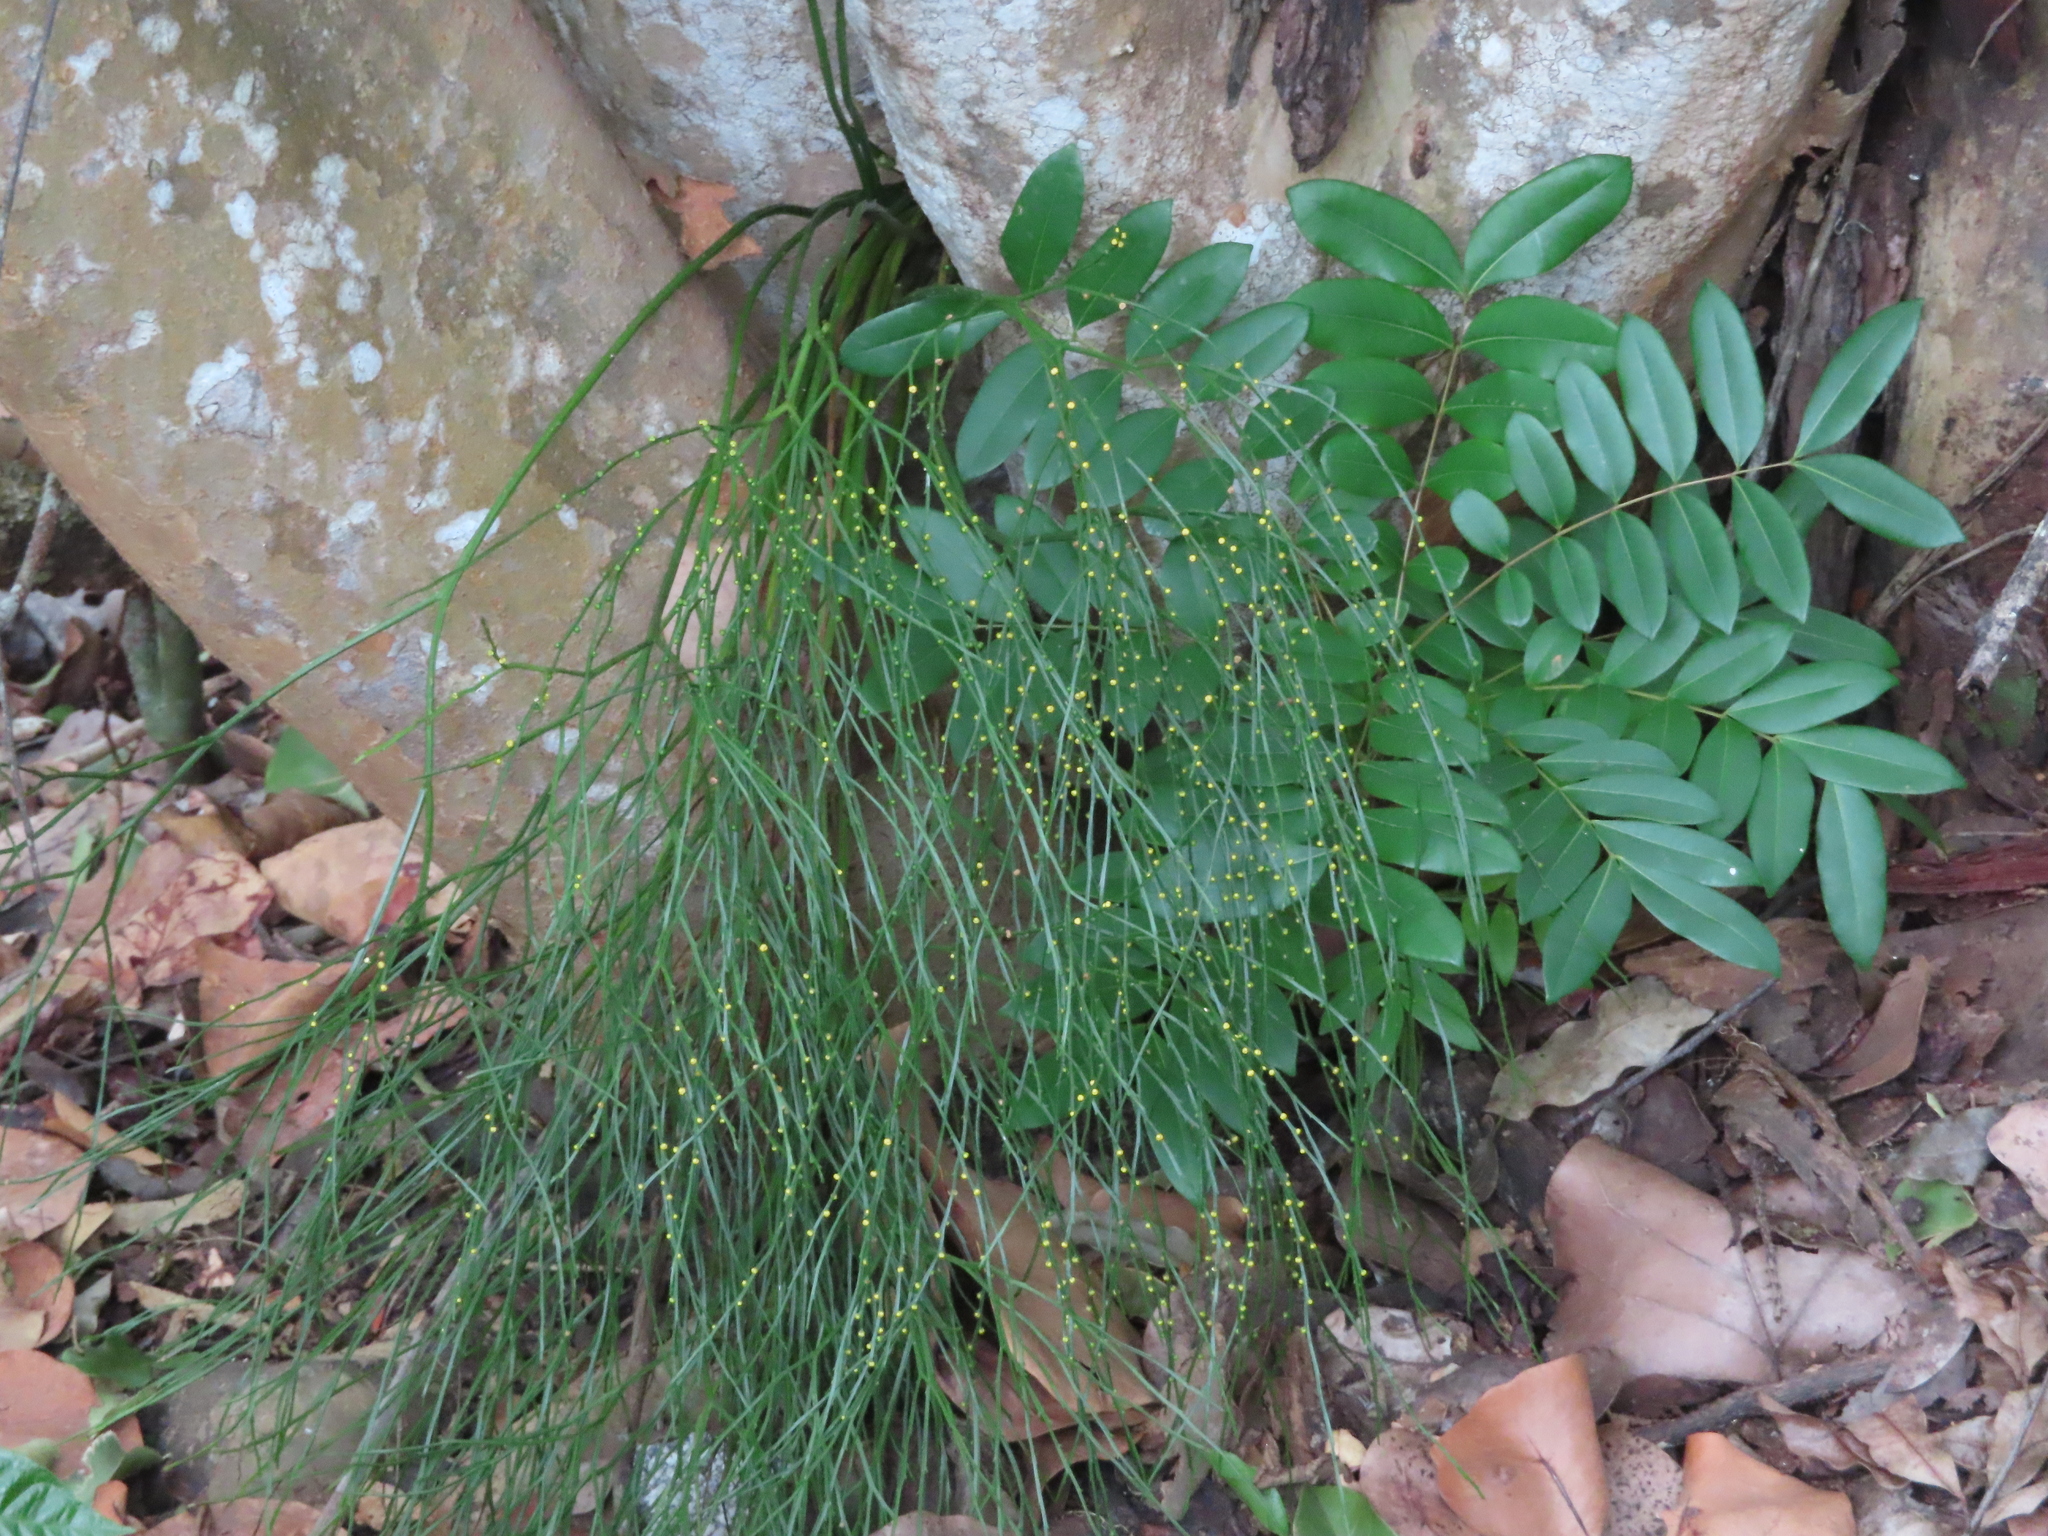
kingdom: Plantae
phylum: Tracheophyta
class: Polypodiopsida
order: Psilotales
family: Psilotaceae
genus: Psilotum
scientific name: Psilotum nudum
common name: Skeleton fork fern
